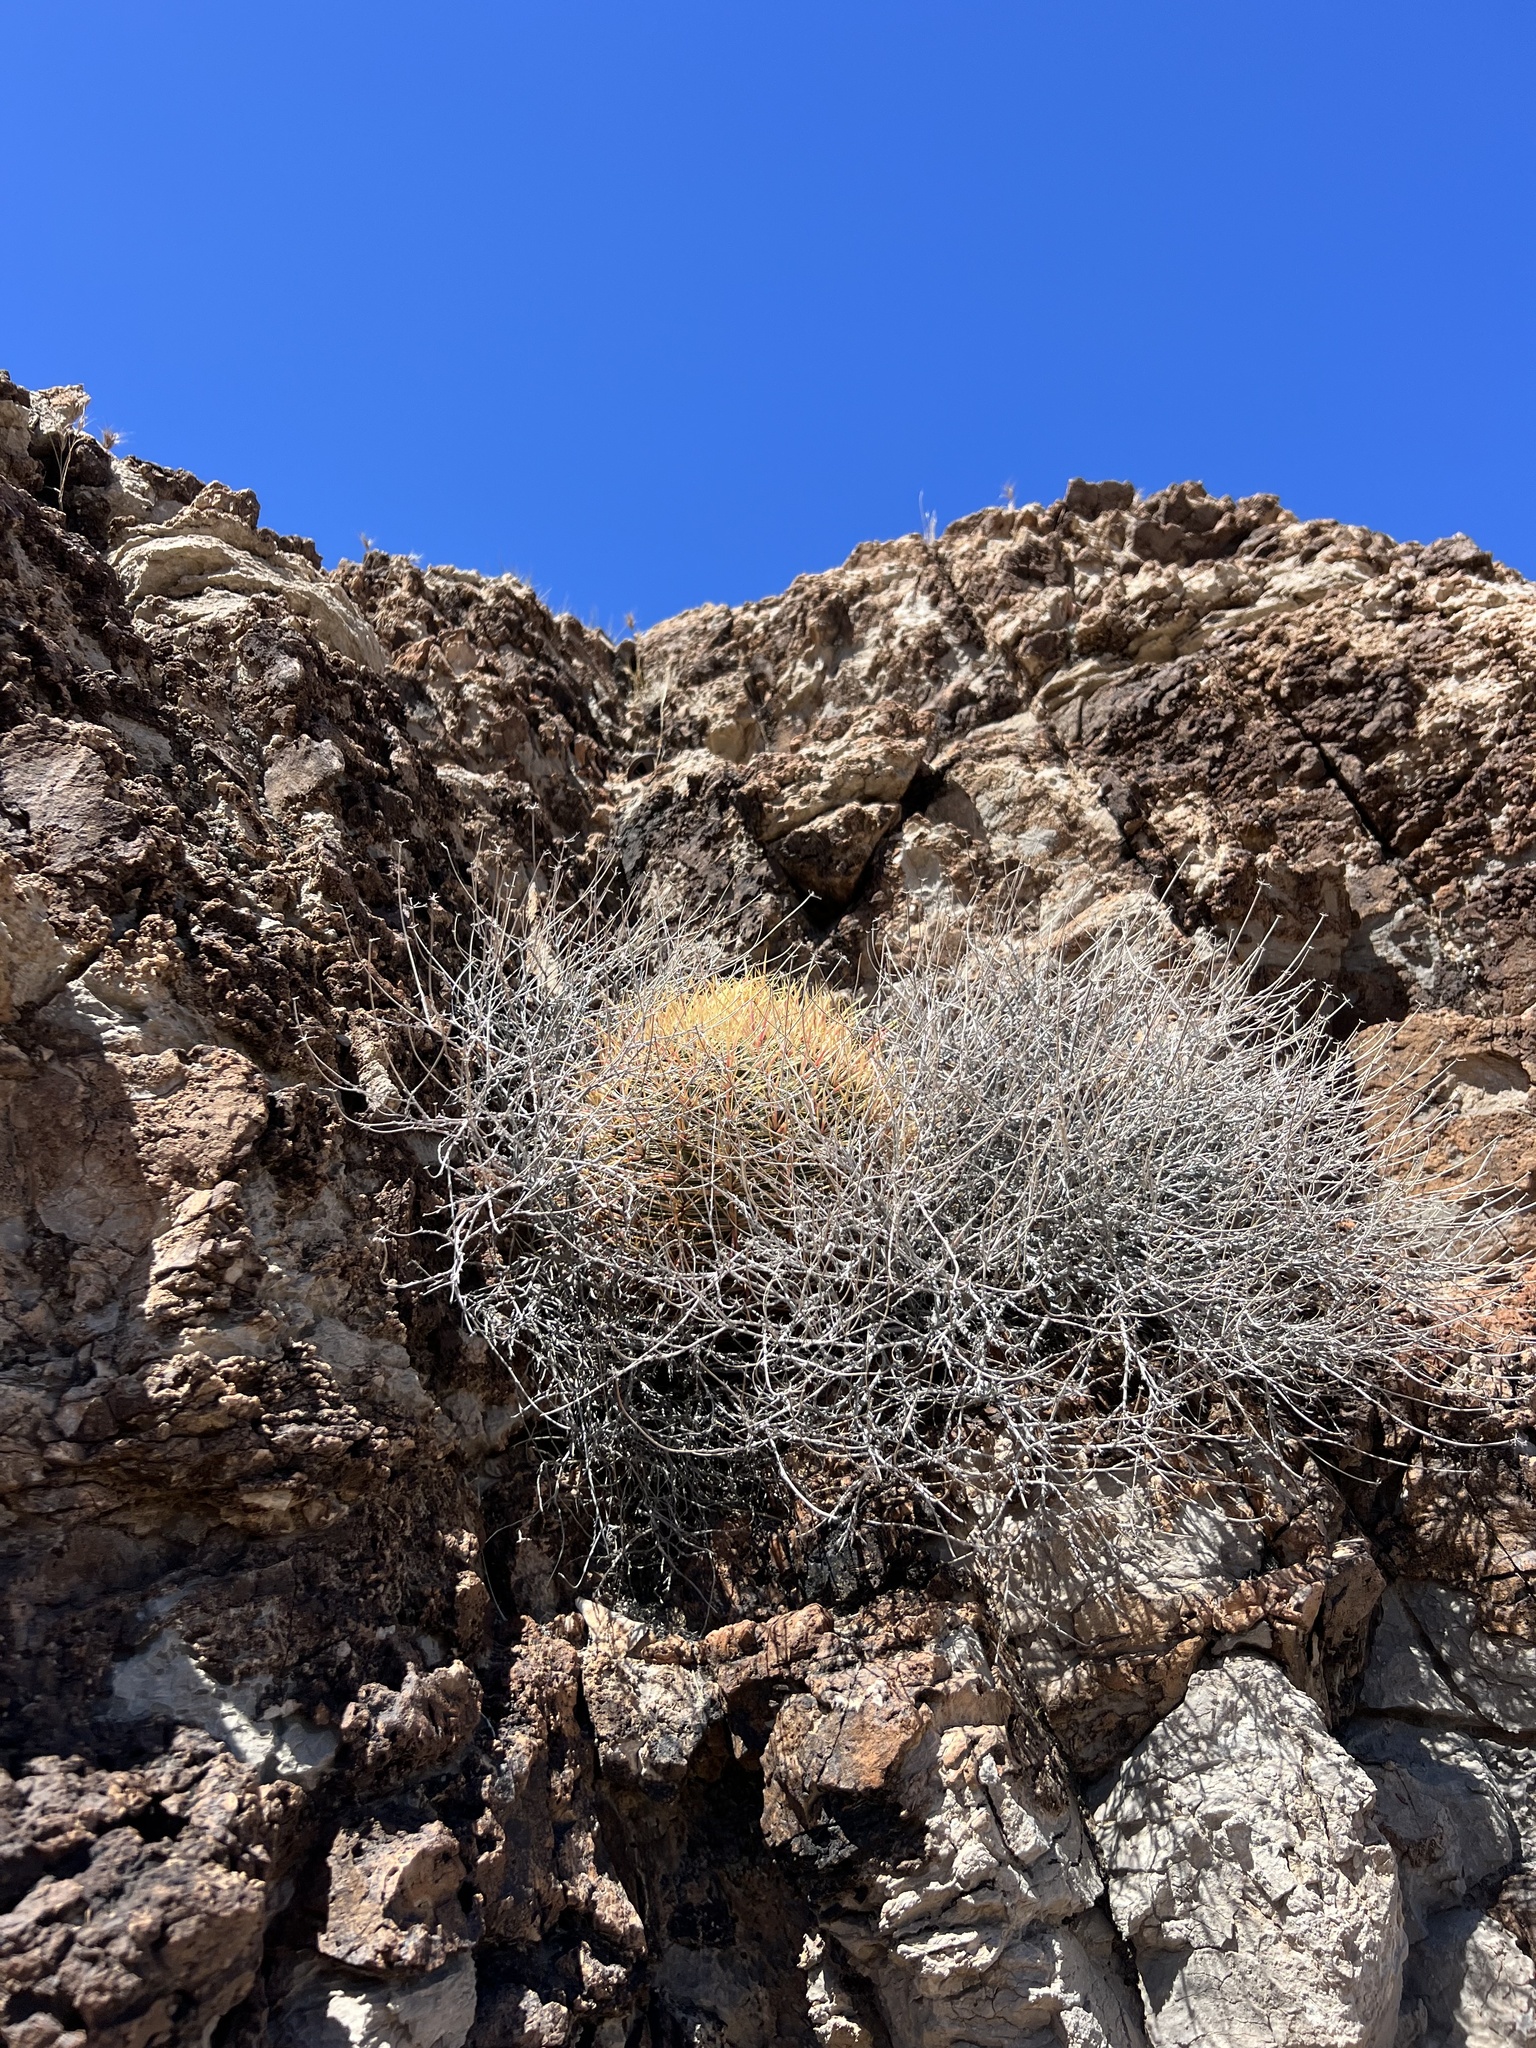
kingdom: Plantae
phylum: Tracheophyta
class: Magnoliopsida
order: Caryophyllales
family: Cactaceae
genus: Ferocactus
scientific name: Ferocactus cylindraceus
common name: California barrel cactus
